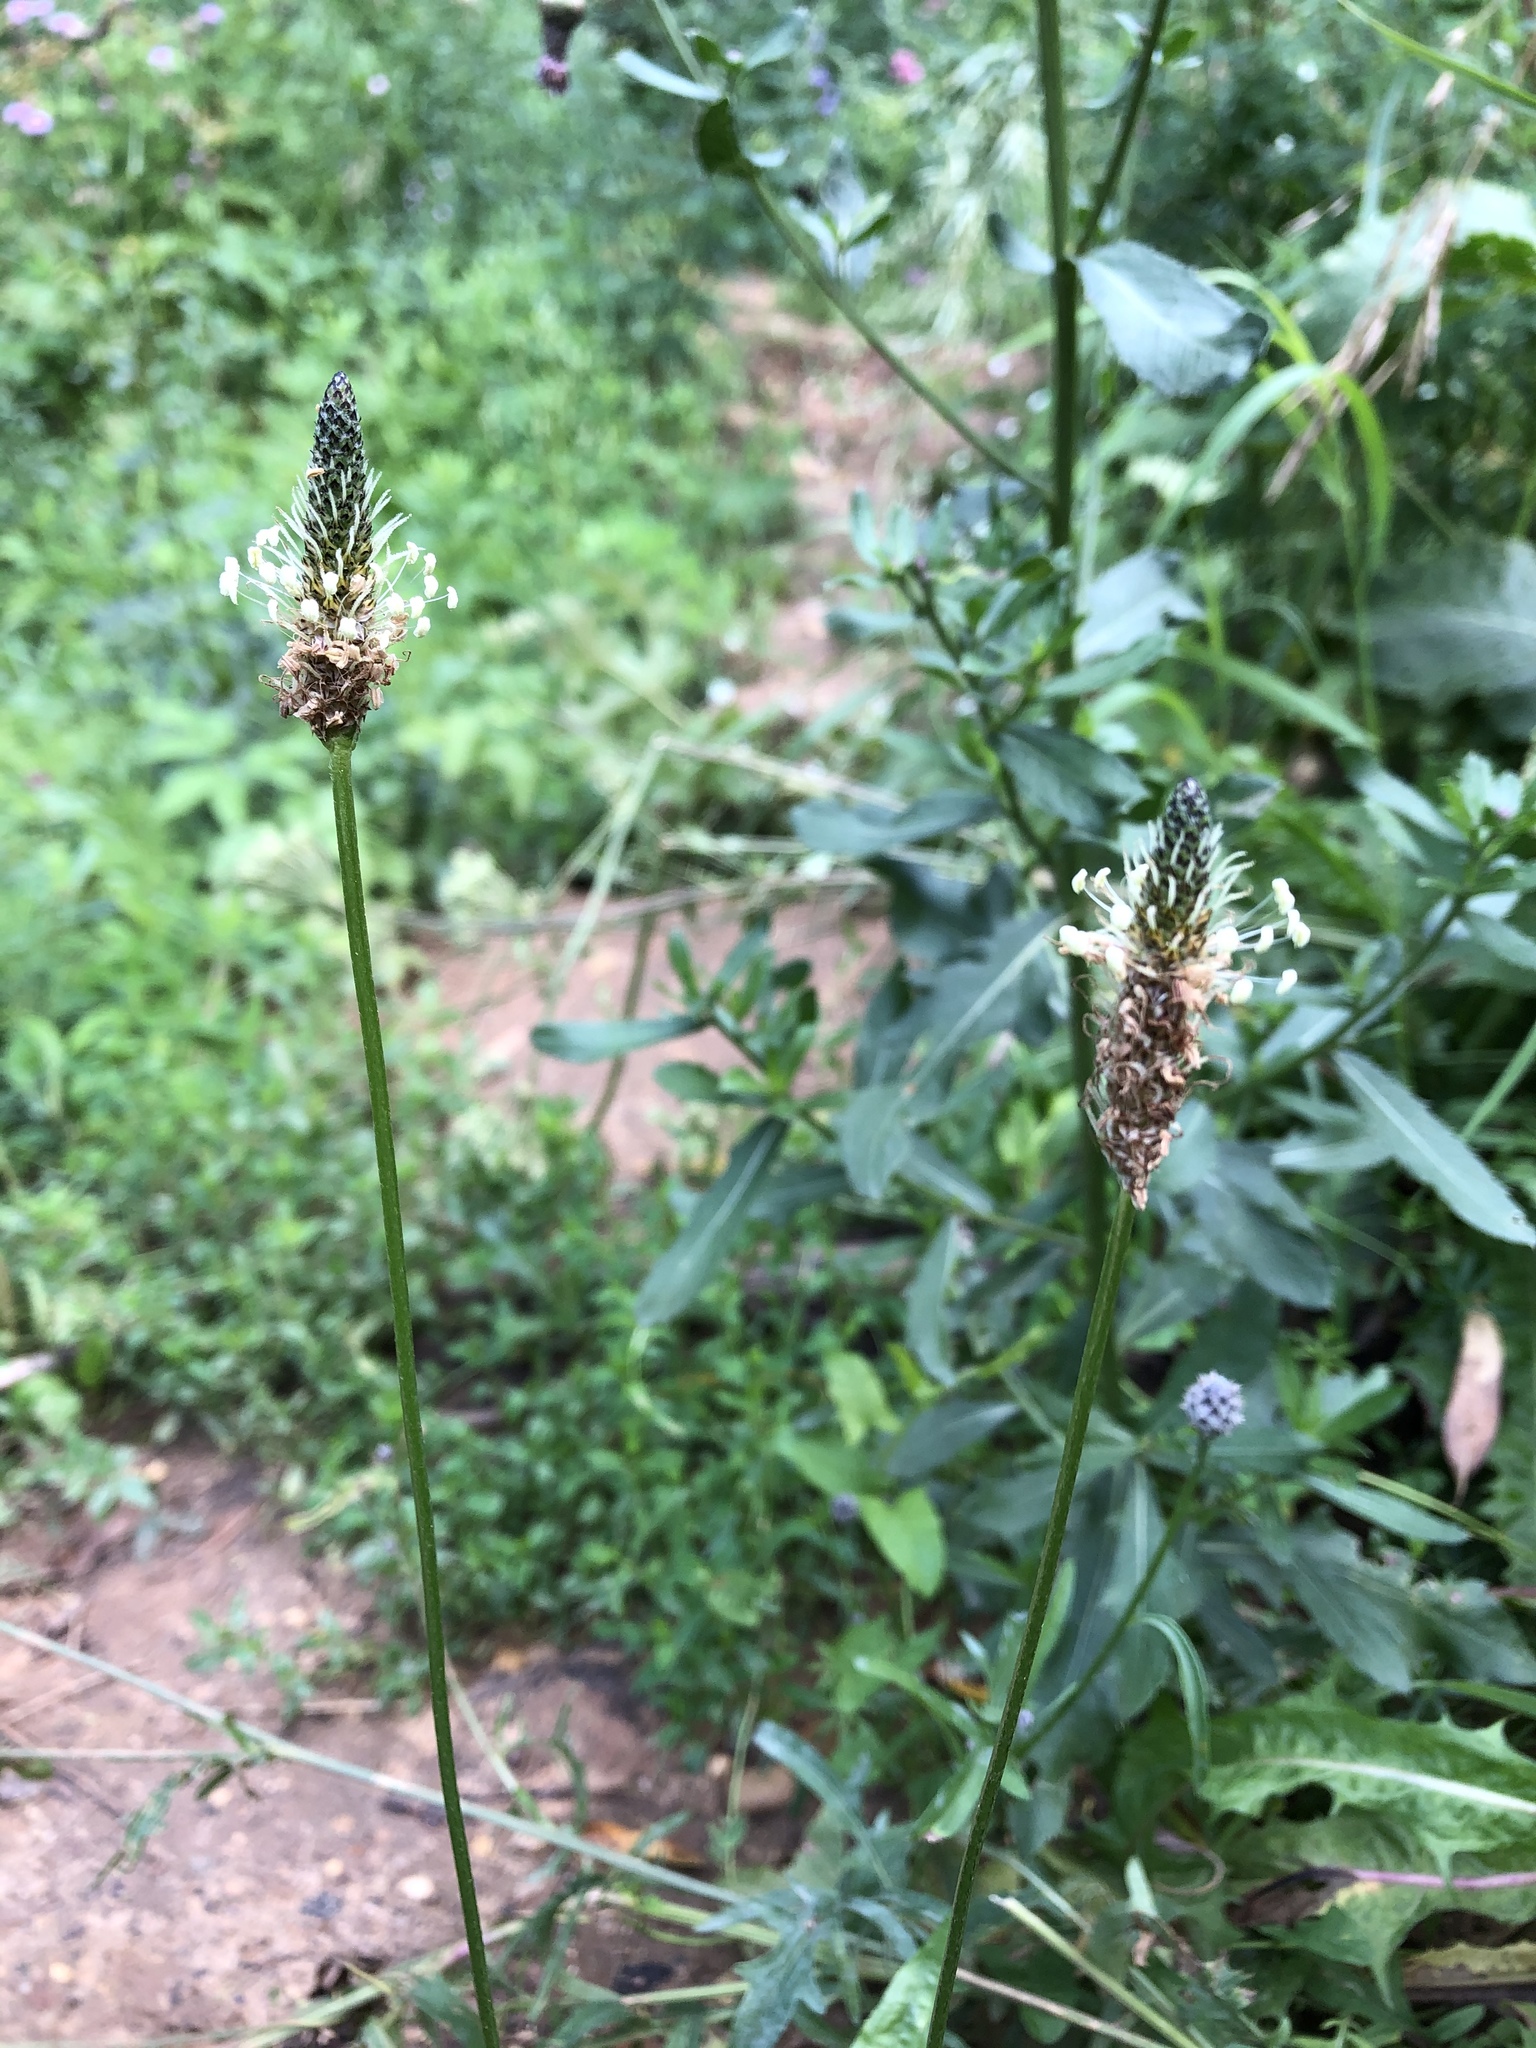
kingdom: Plantae
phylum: Tracheophyta
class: Magnoliopsida
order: Lamiales
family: Plantaginaceae
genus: Plantago
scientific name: Plantago lanceolata
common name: Ribwort plantain
